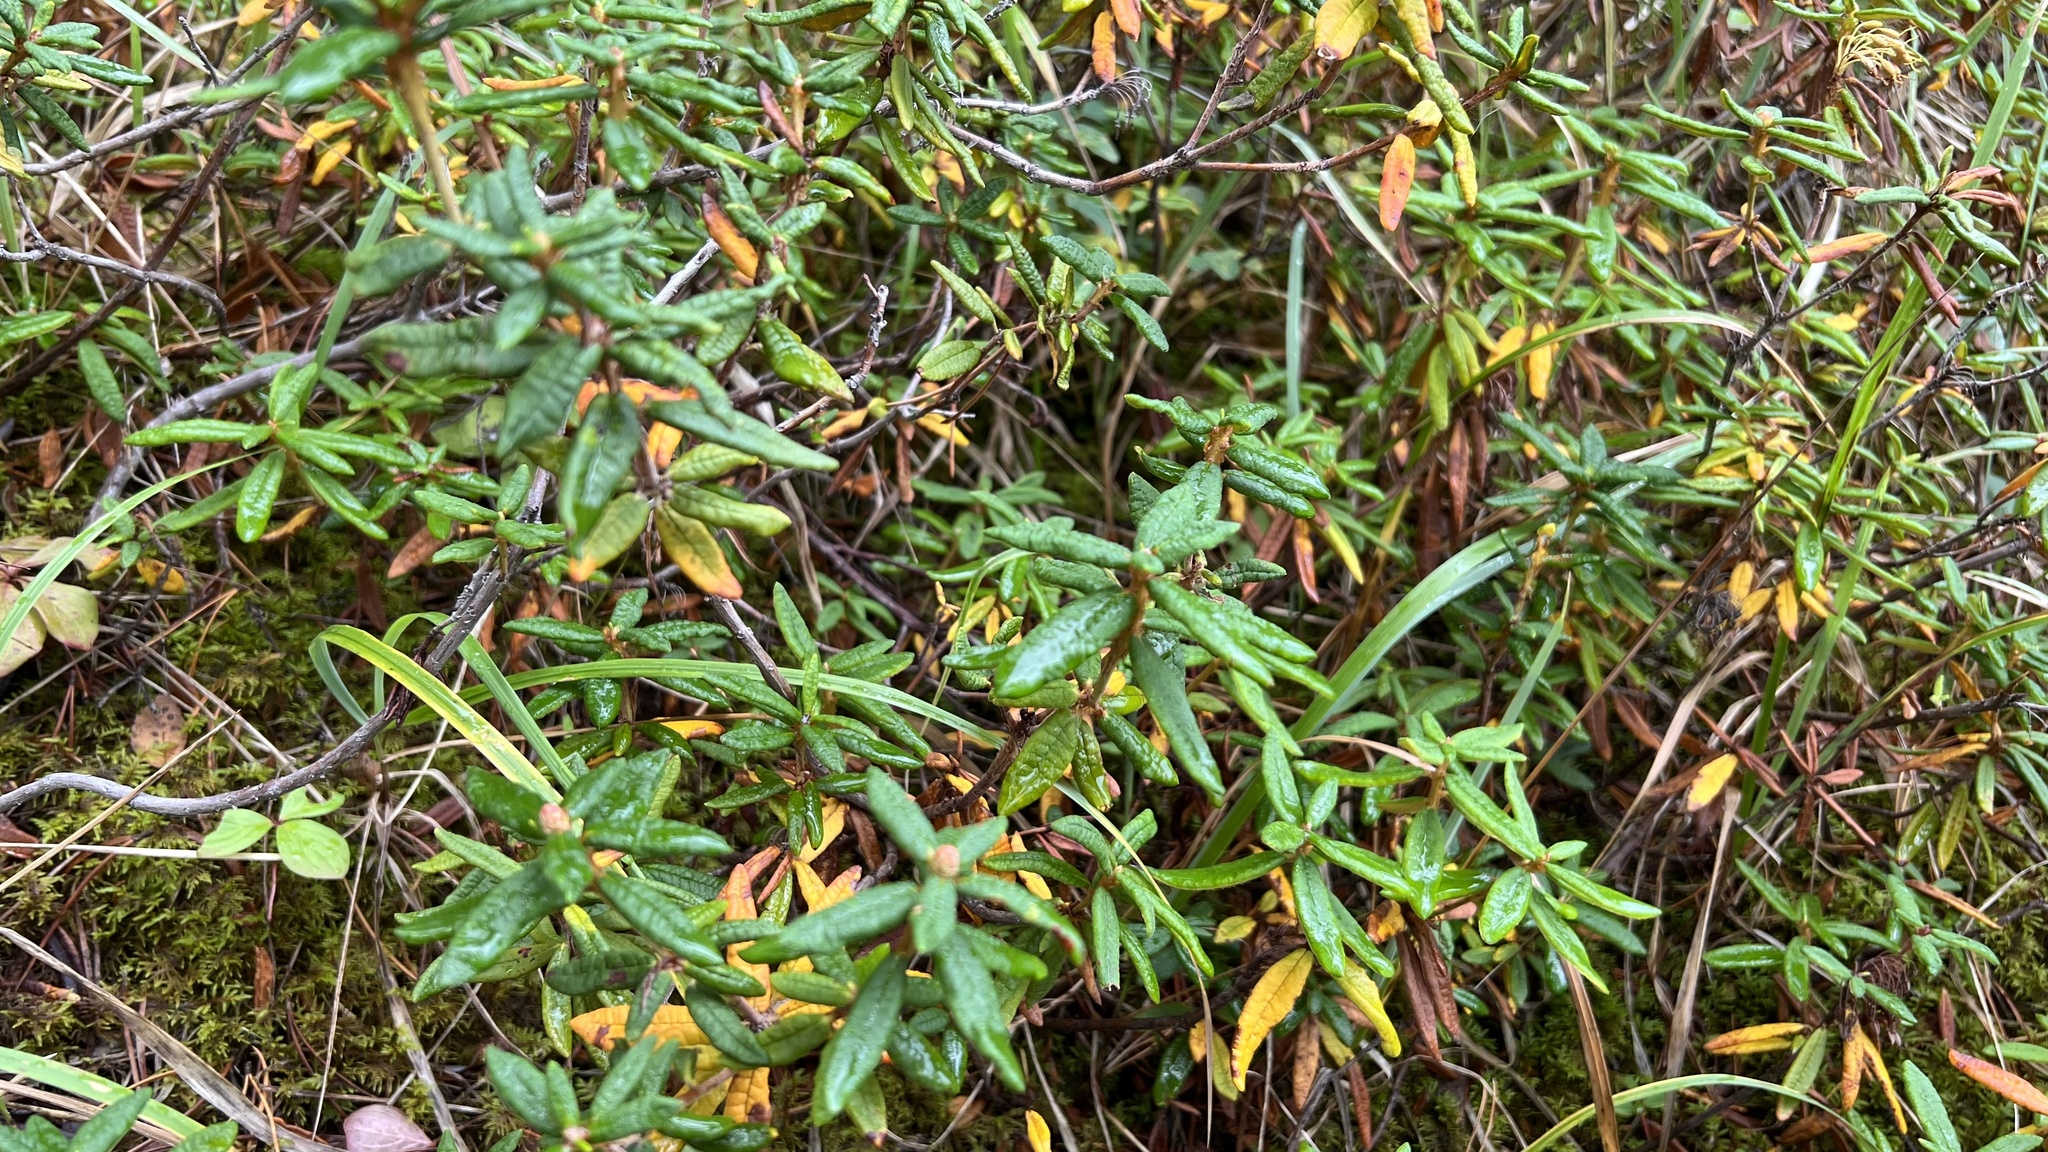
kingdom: Plantae
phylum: Tracheophyta
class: Magnoliopsida
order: Ericales
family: Ericaceae
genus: Rhododendron
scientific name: Rhododendron groenlandicum
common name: Bog labrador tea
